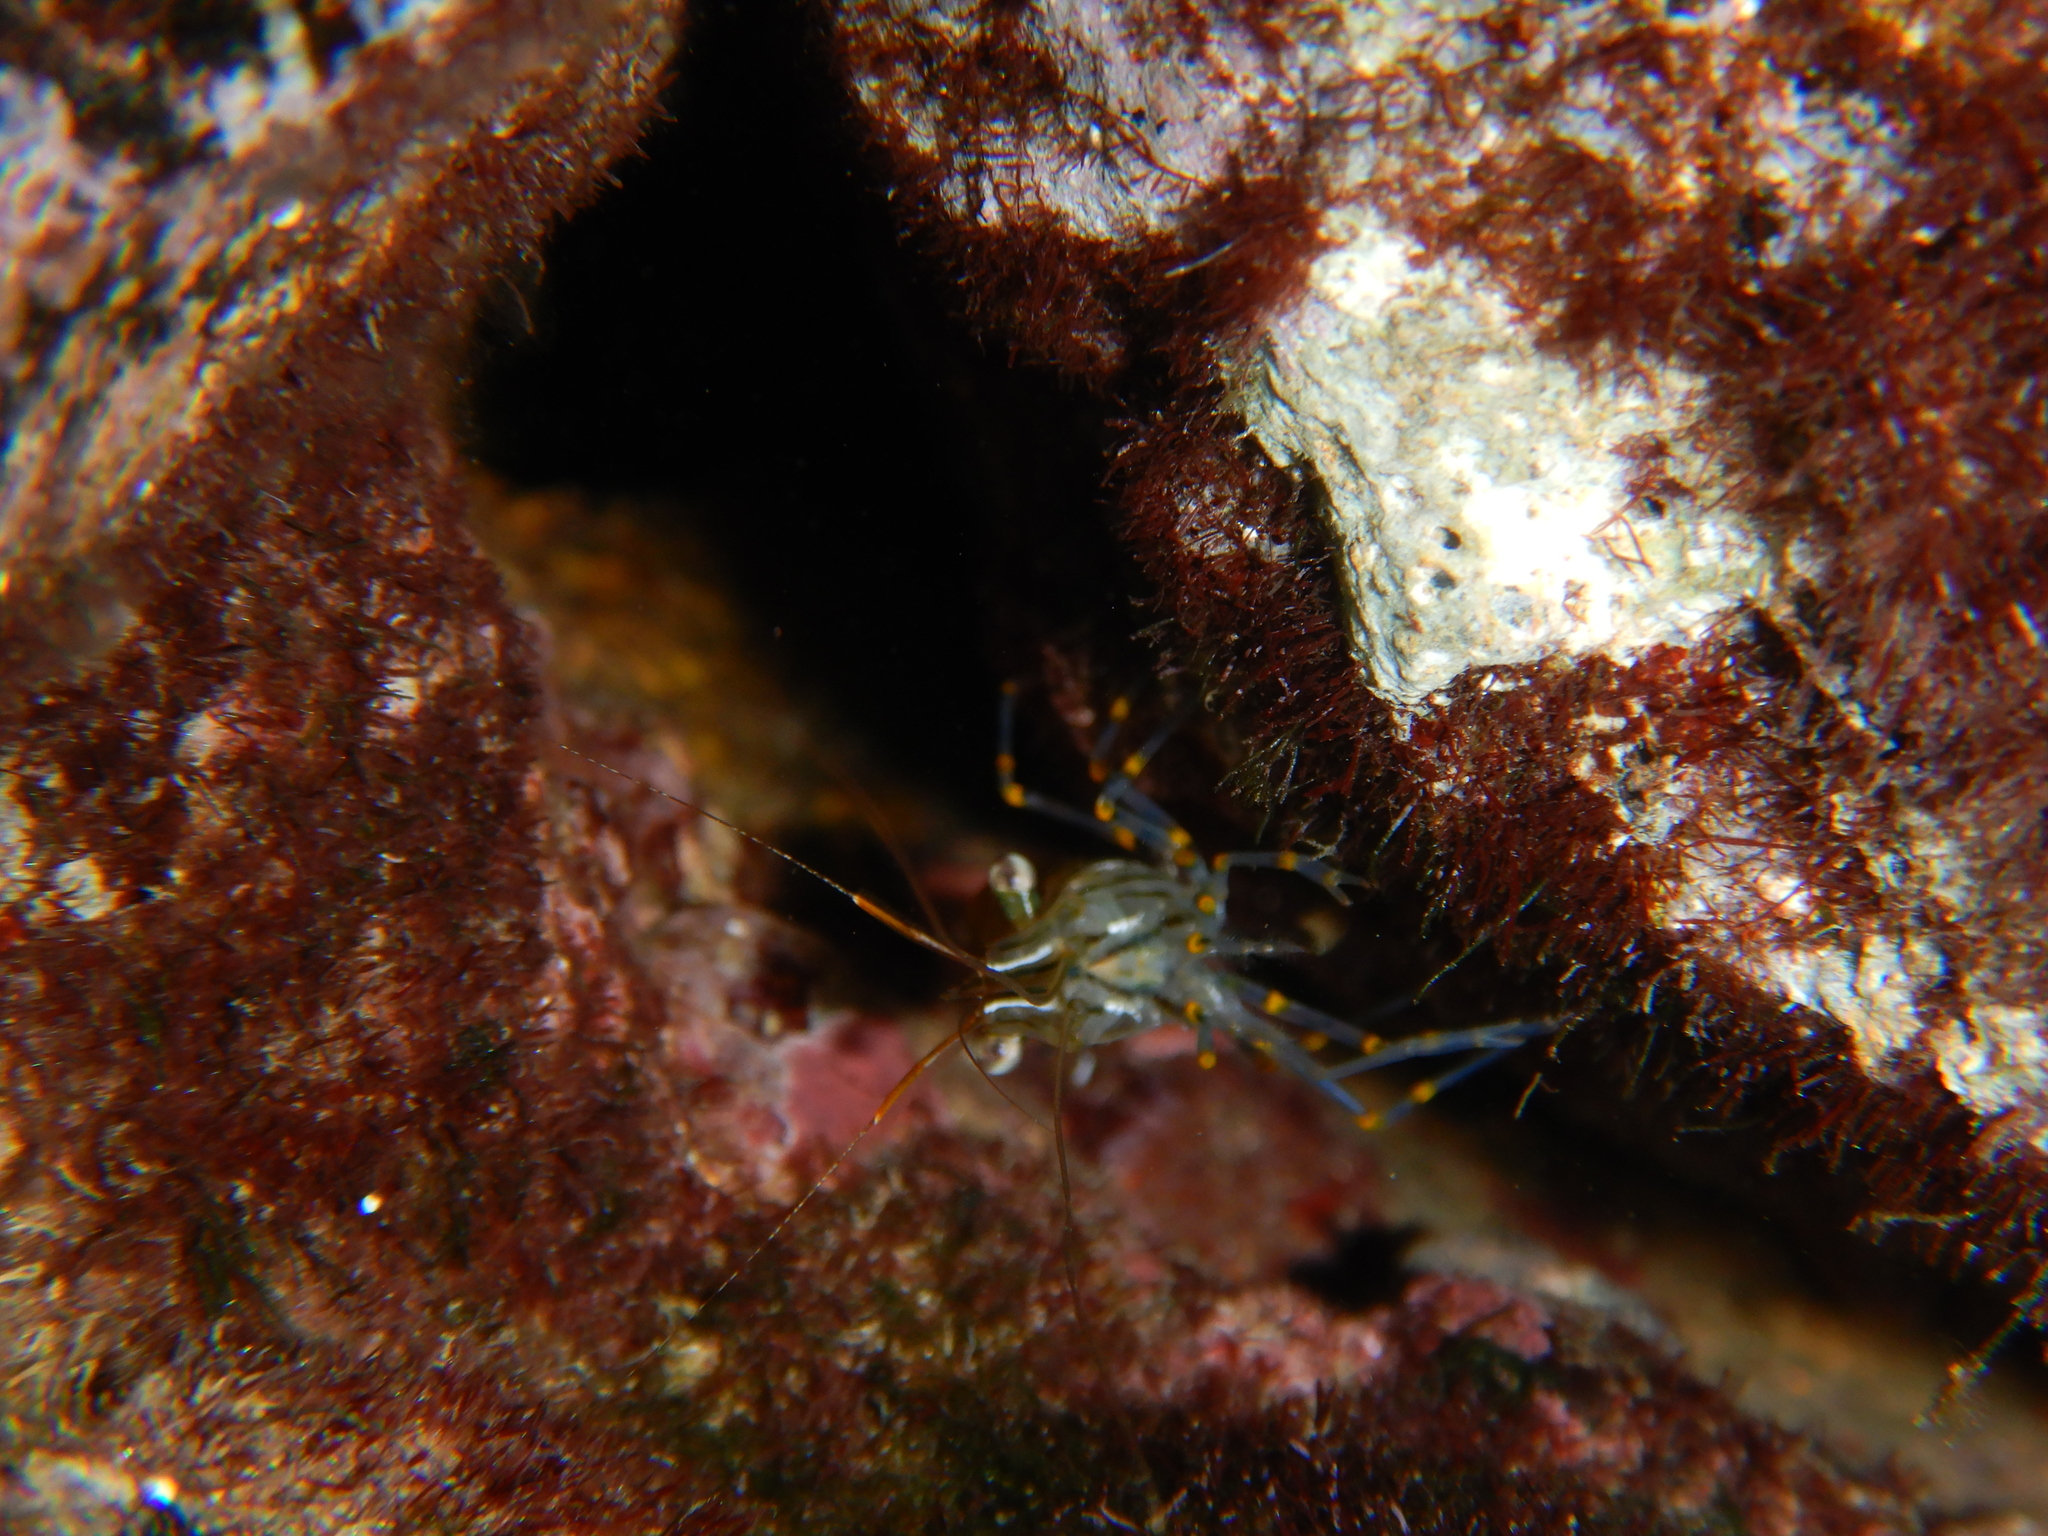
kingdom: Animalia
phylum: Arthropoda
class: Malacostraca
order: Decapoda
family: Palaemonidae
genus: Palaemon
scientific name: Palaemon elegans
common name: Grass prawm
